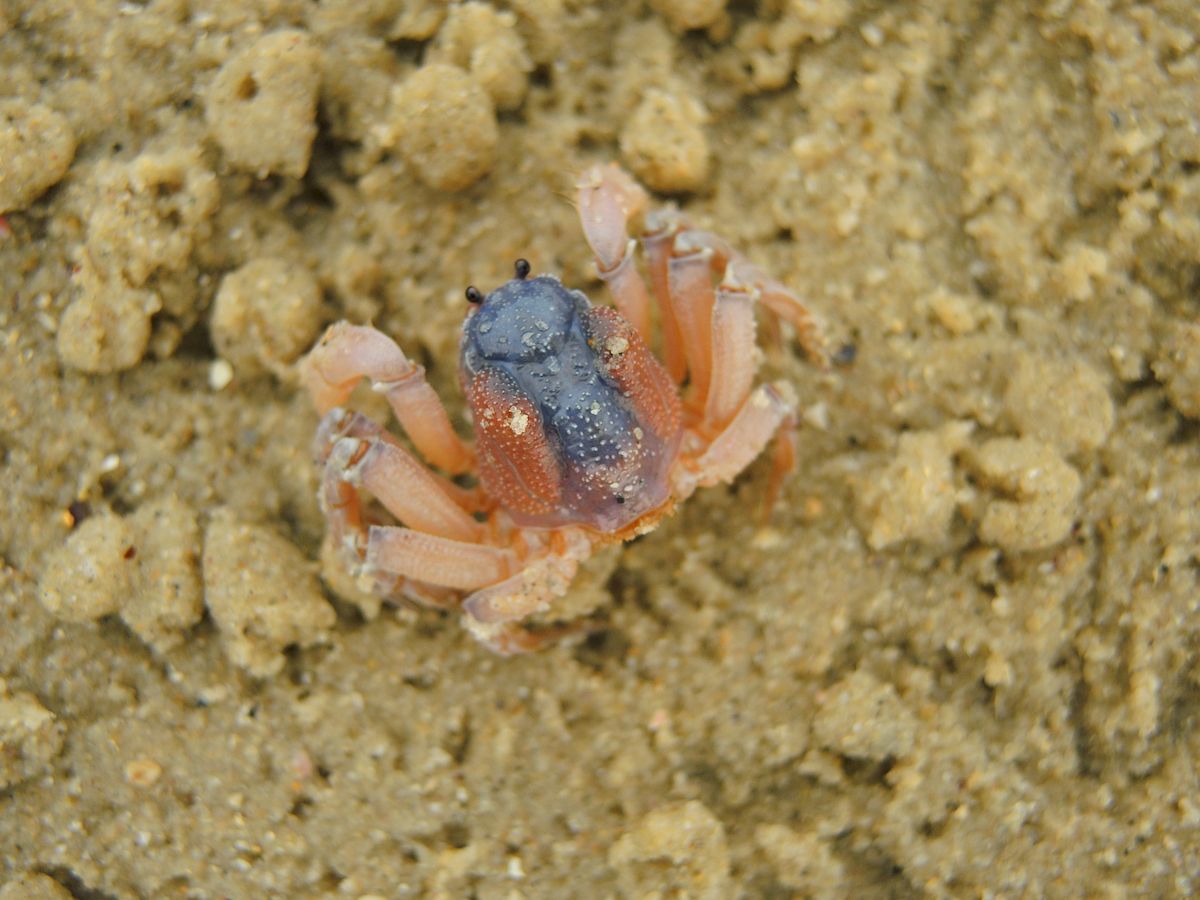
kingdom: Animalia
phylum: Arthropoda
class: Malacostraca
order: Decapoda
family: Mictyridae
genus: Mictyris
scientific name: Mictyris platycheles
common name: Dark blue soldier crab
